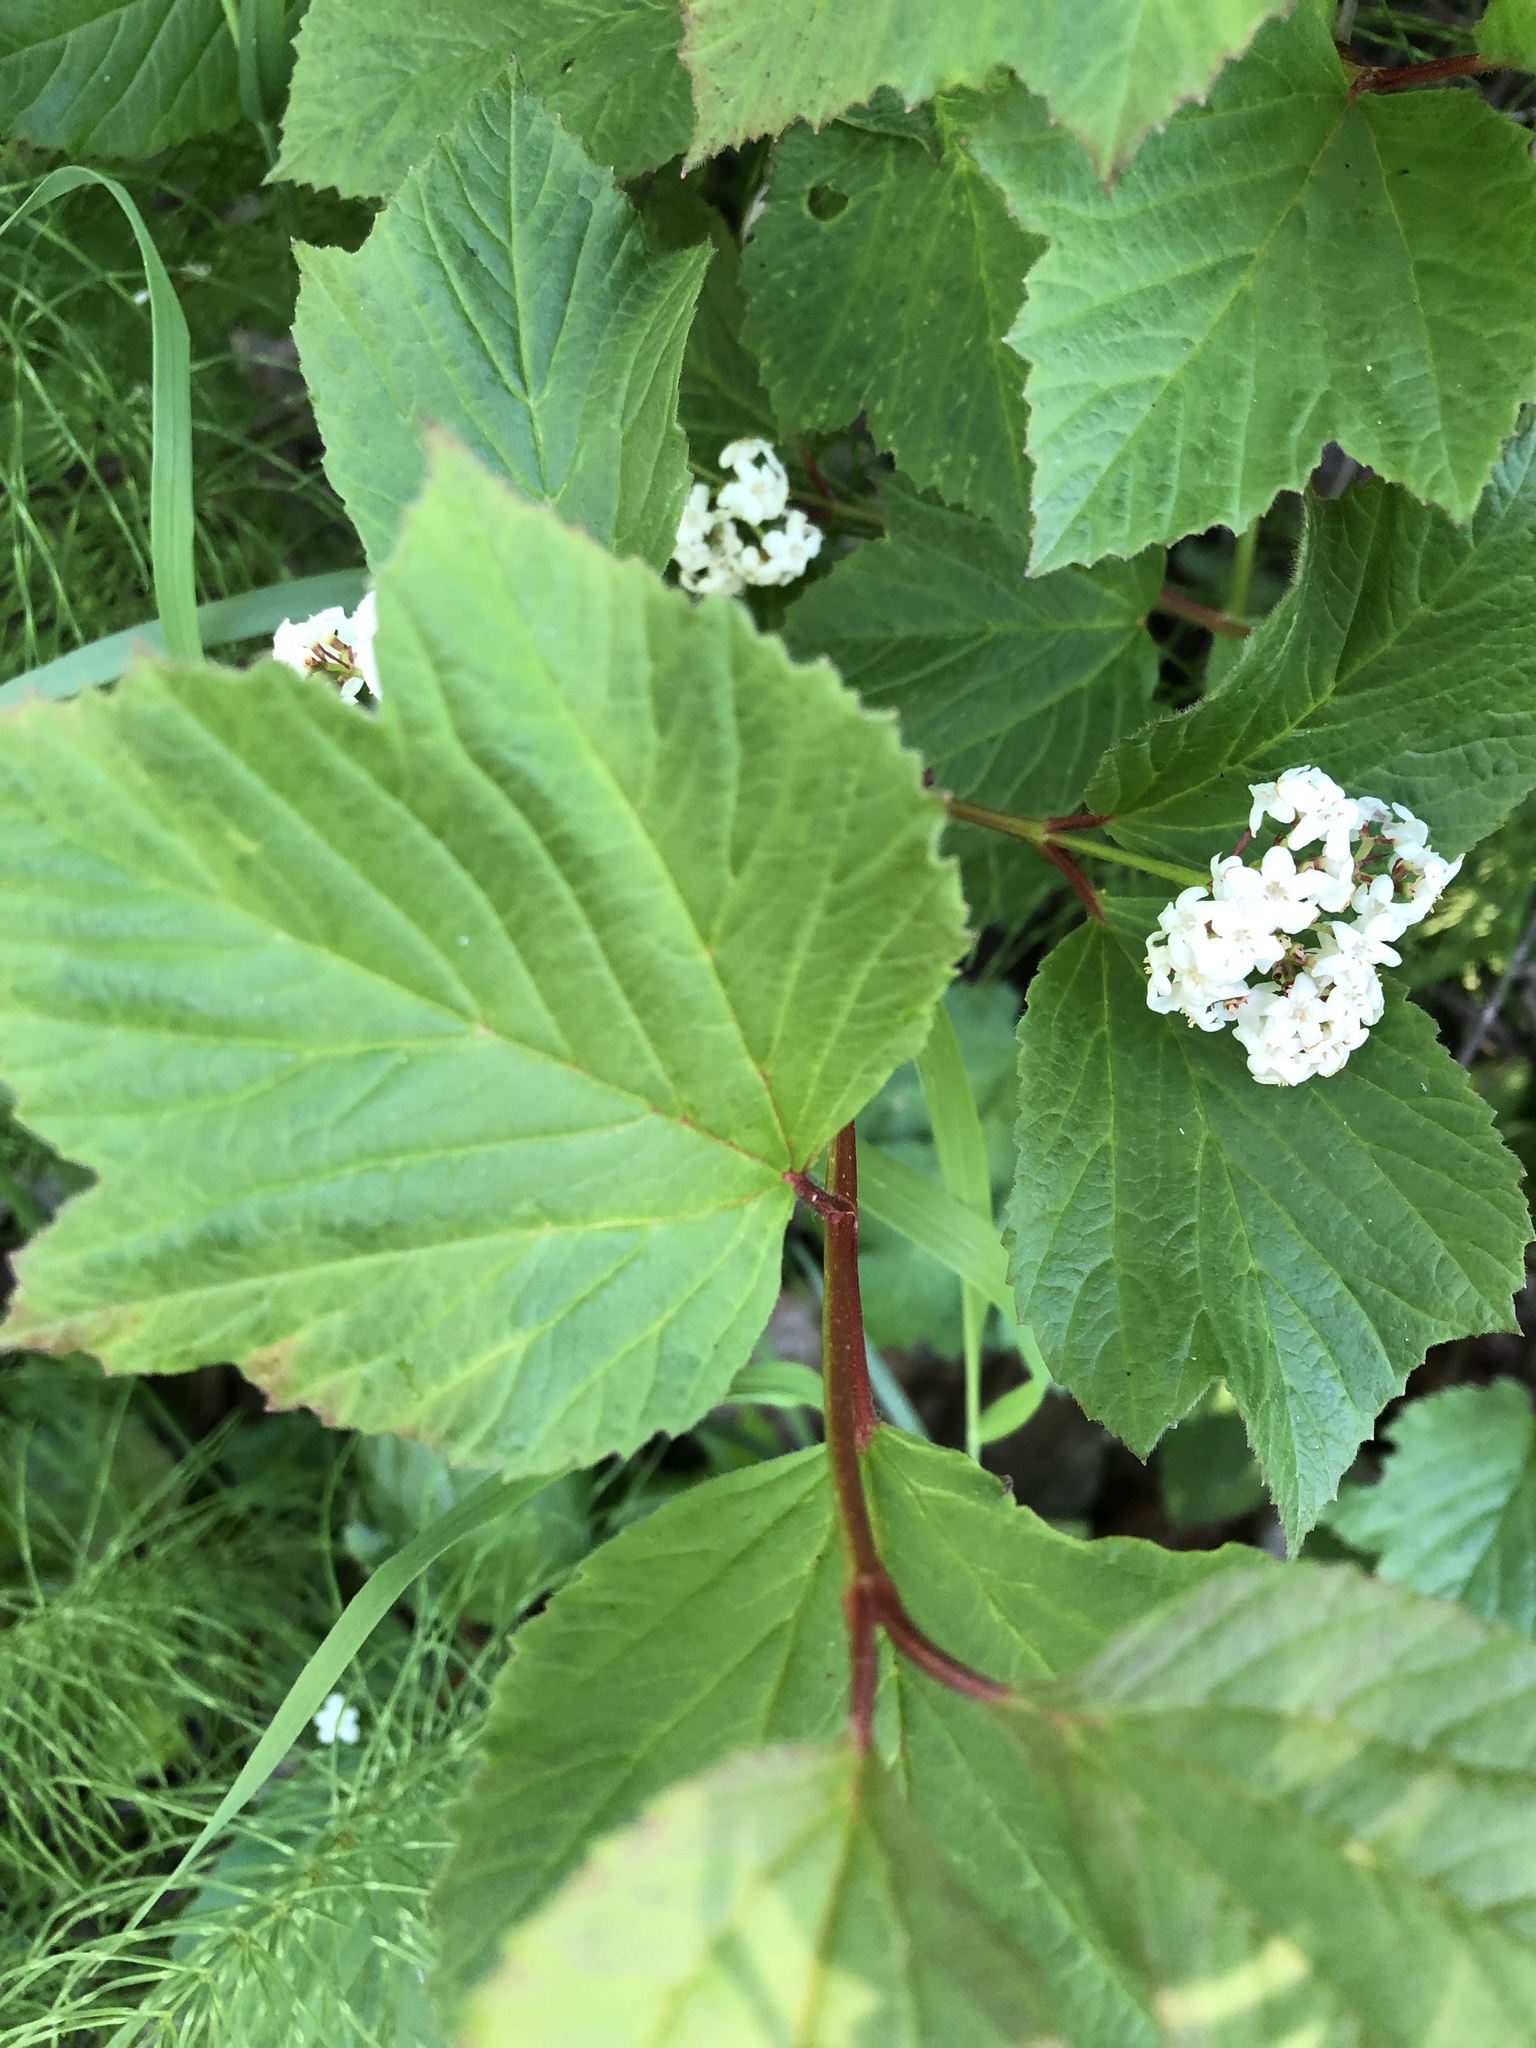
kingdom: Plantae
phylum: Tracheophyta
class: Magnoliopsida
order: Dipsacales
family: Viburnaceae
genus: Viburnum
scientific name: Viburnum edule
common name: Mooseberry
